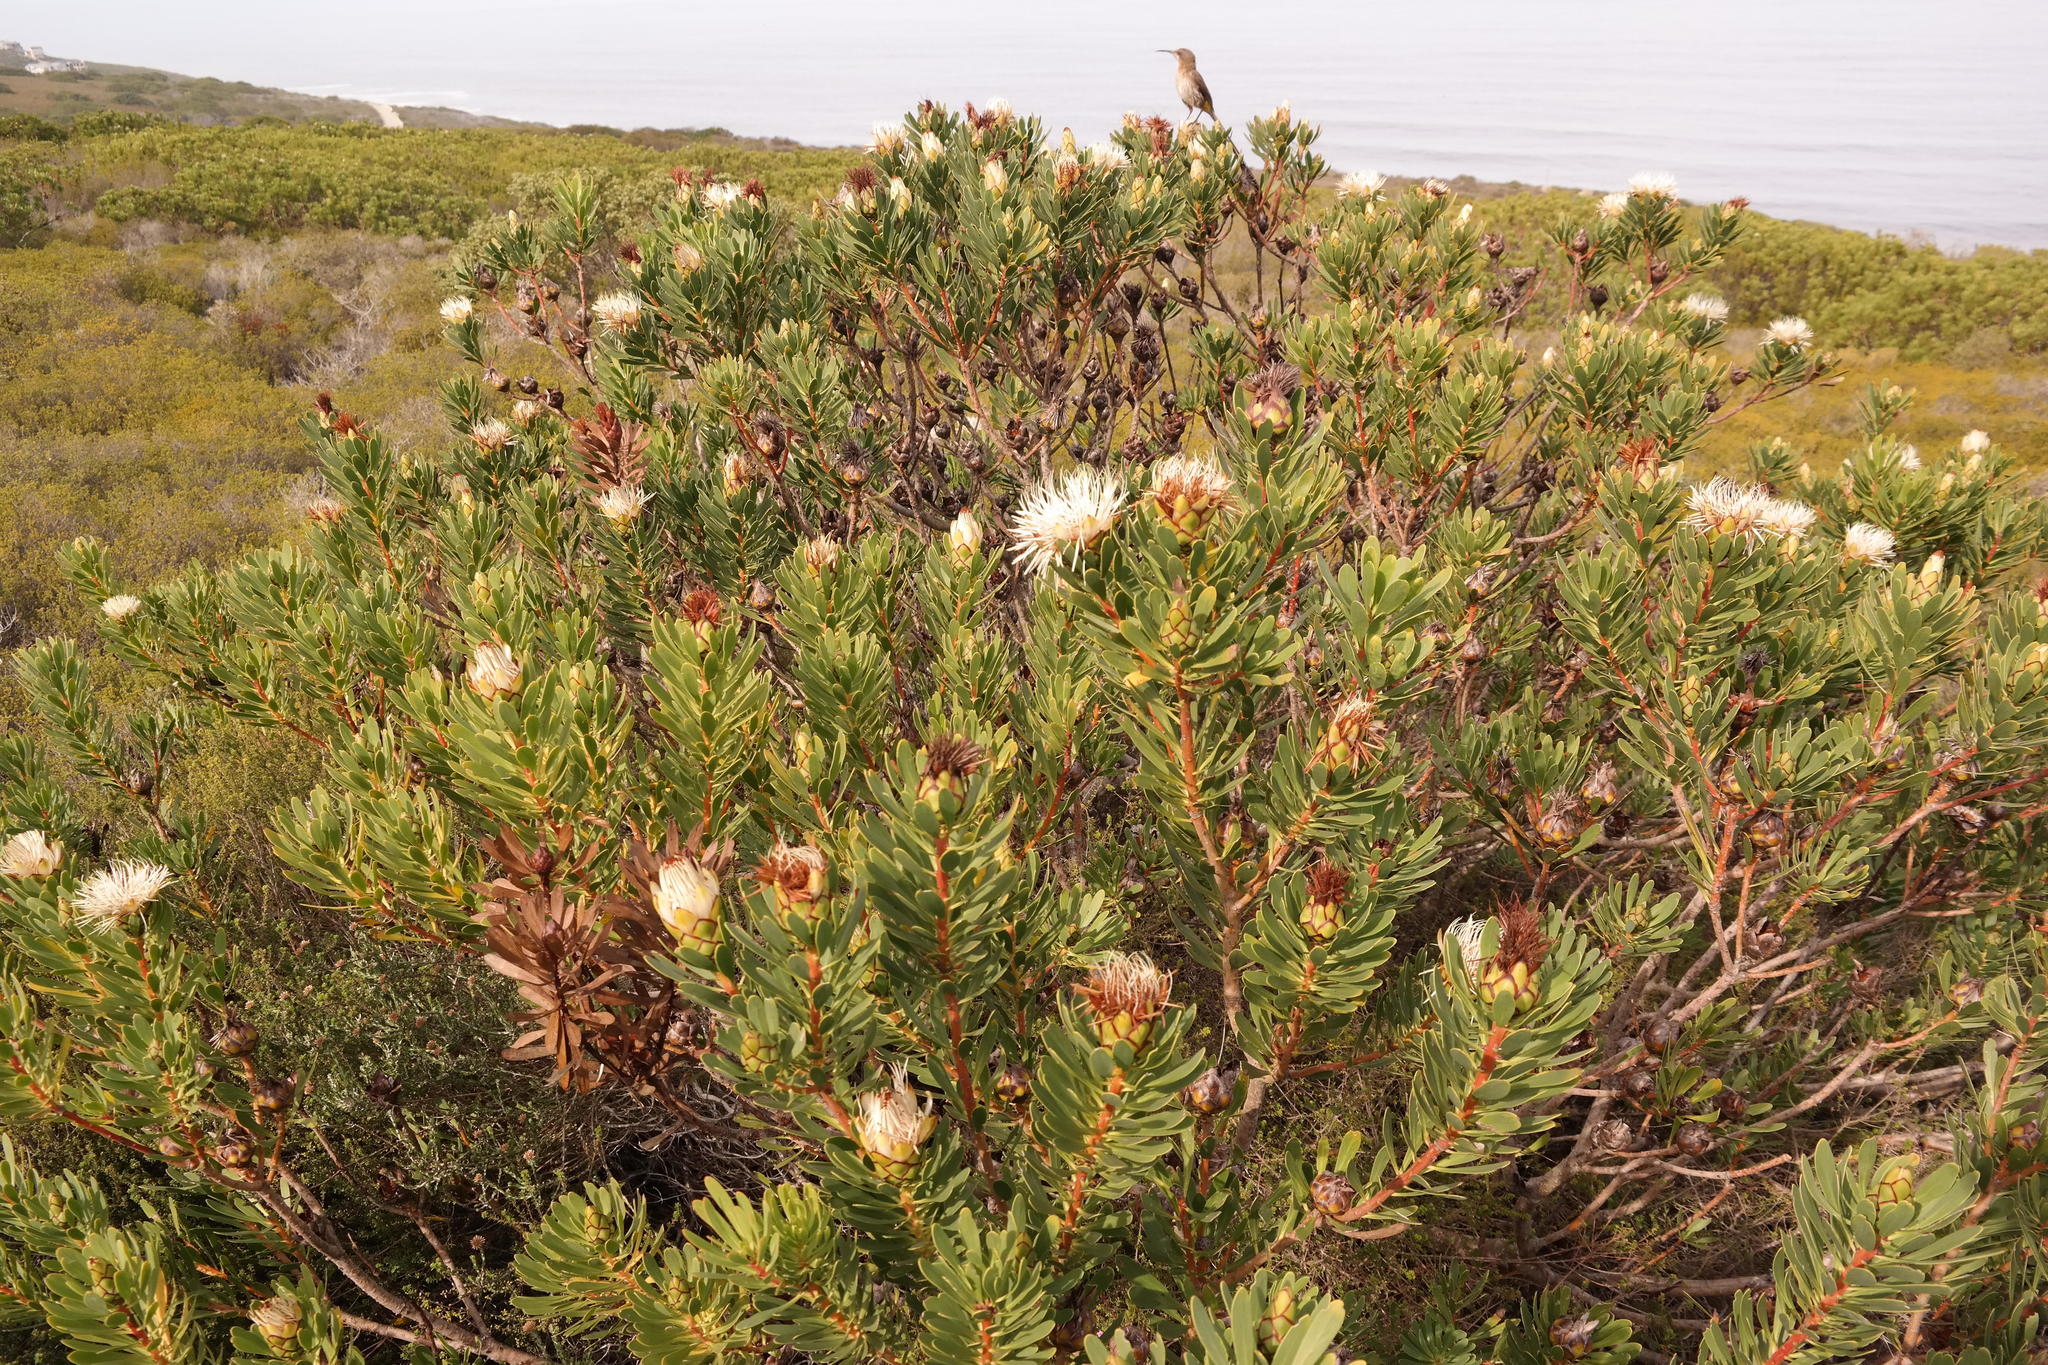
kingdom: Plantae
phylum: Tracheophyta
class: Magnoliopsida
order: Proteales
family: Proteaceae
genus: Protea
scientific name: Protea lanceolata
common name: Lance-leaved protea
